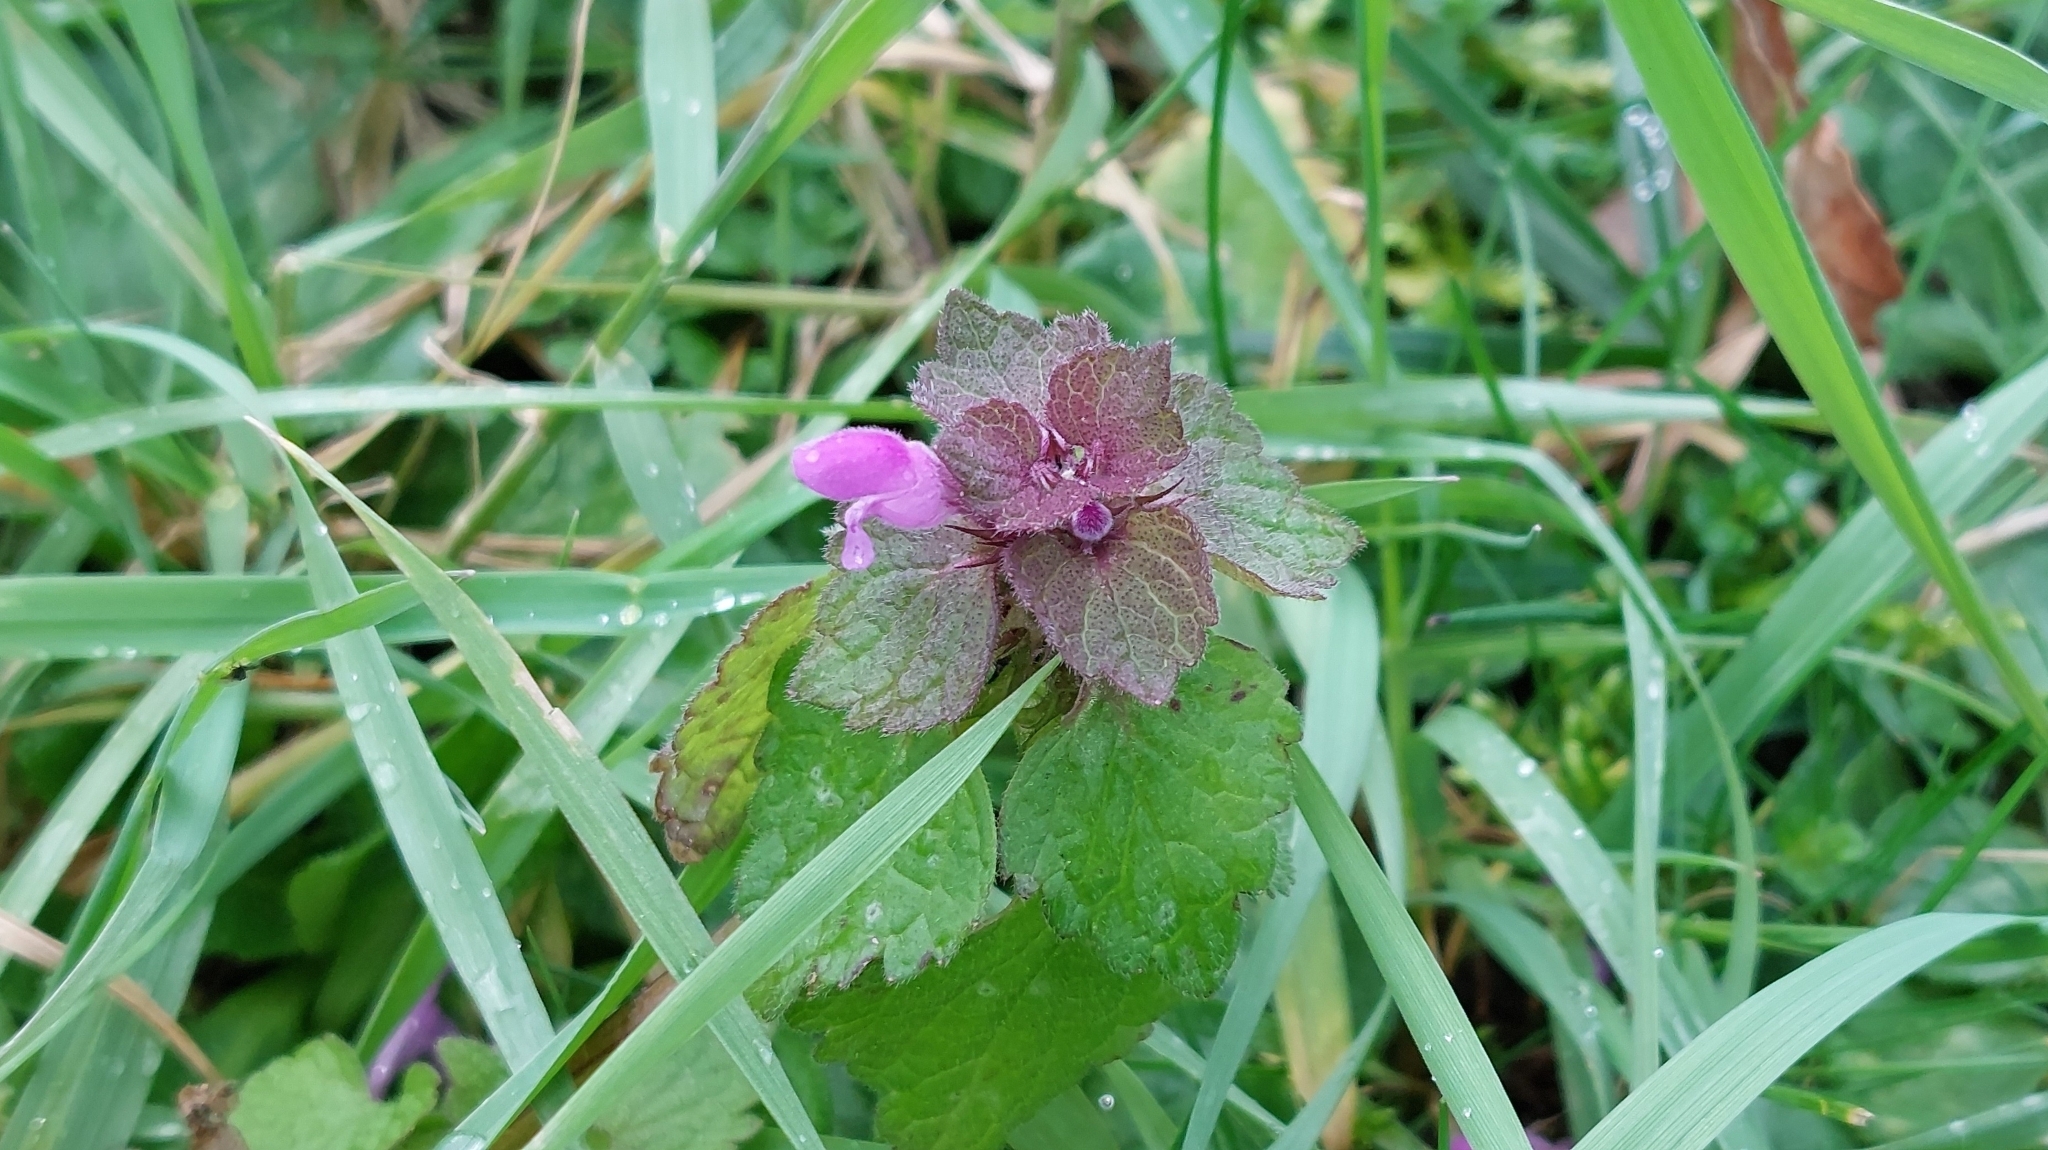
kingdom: Plantae
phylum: Tracheophyta
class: Magnoliopsida
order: Lamiales
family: Lamiaceae
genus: Lamium
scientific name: Lamium purpureum
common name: Red dead-nettle
